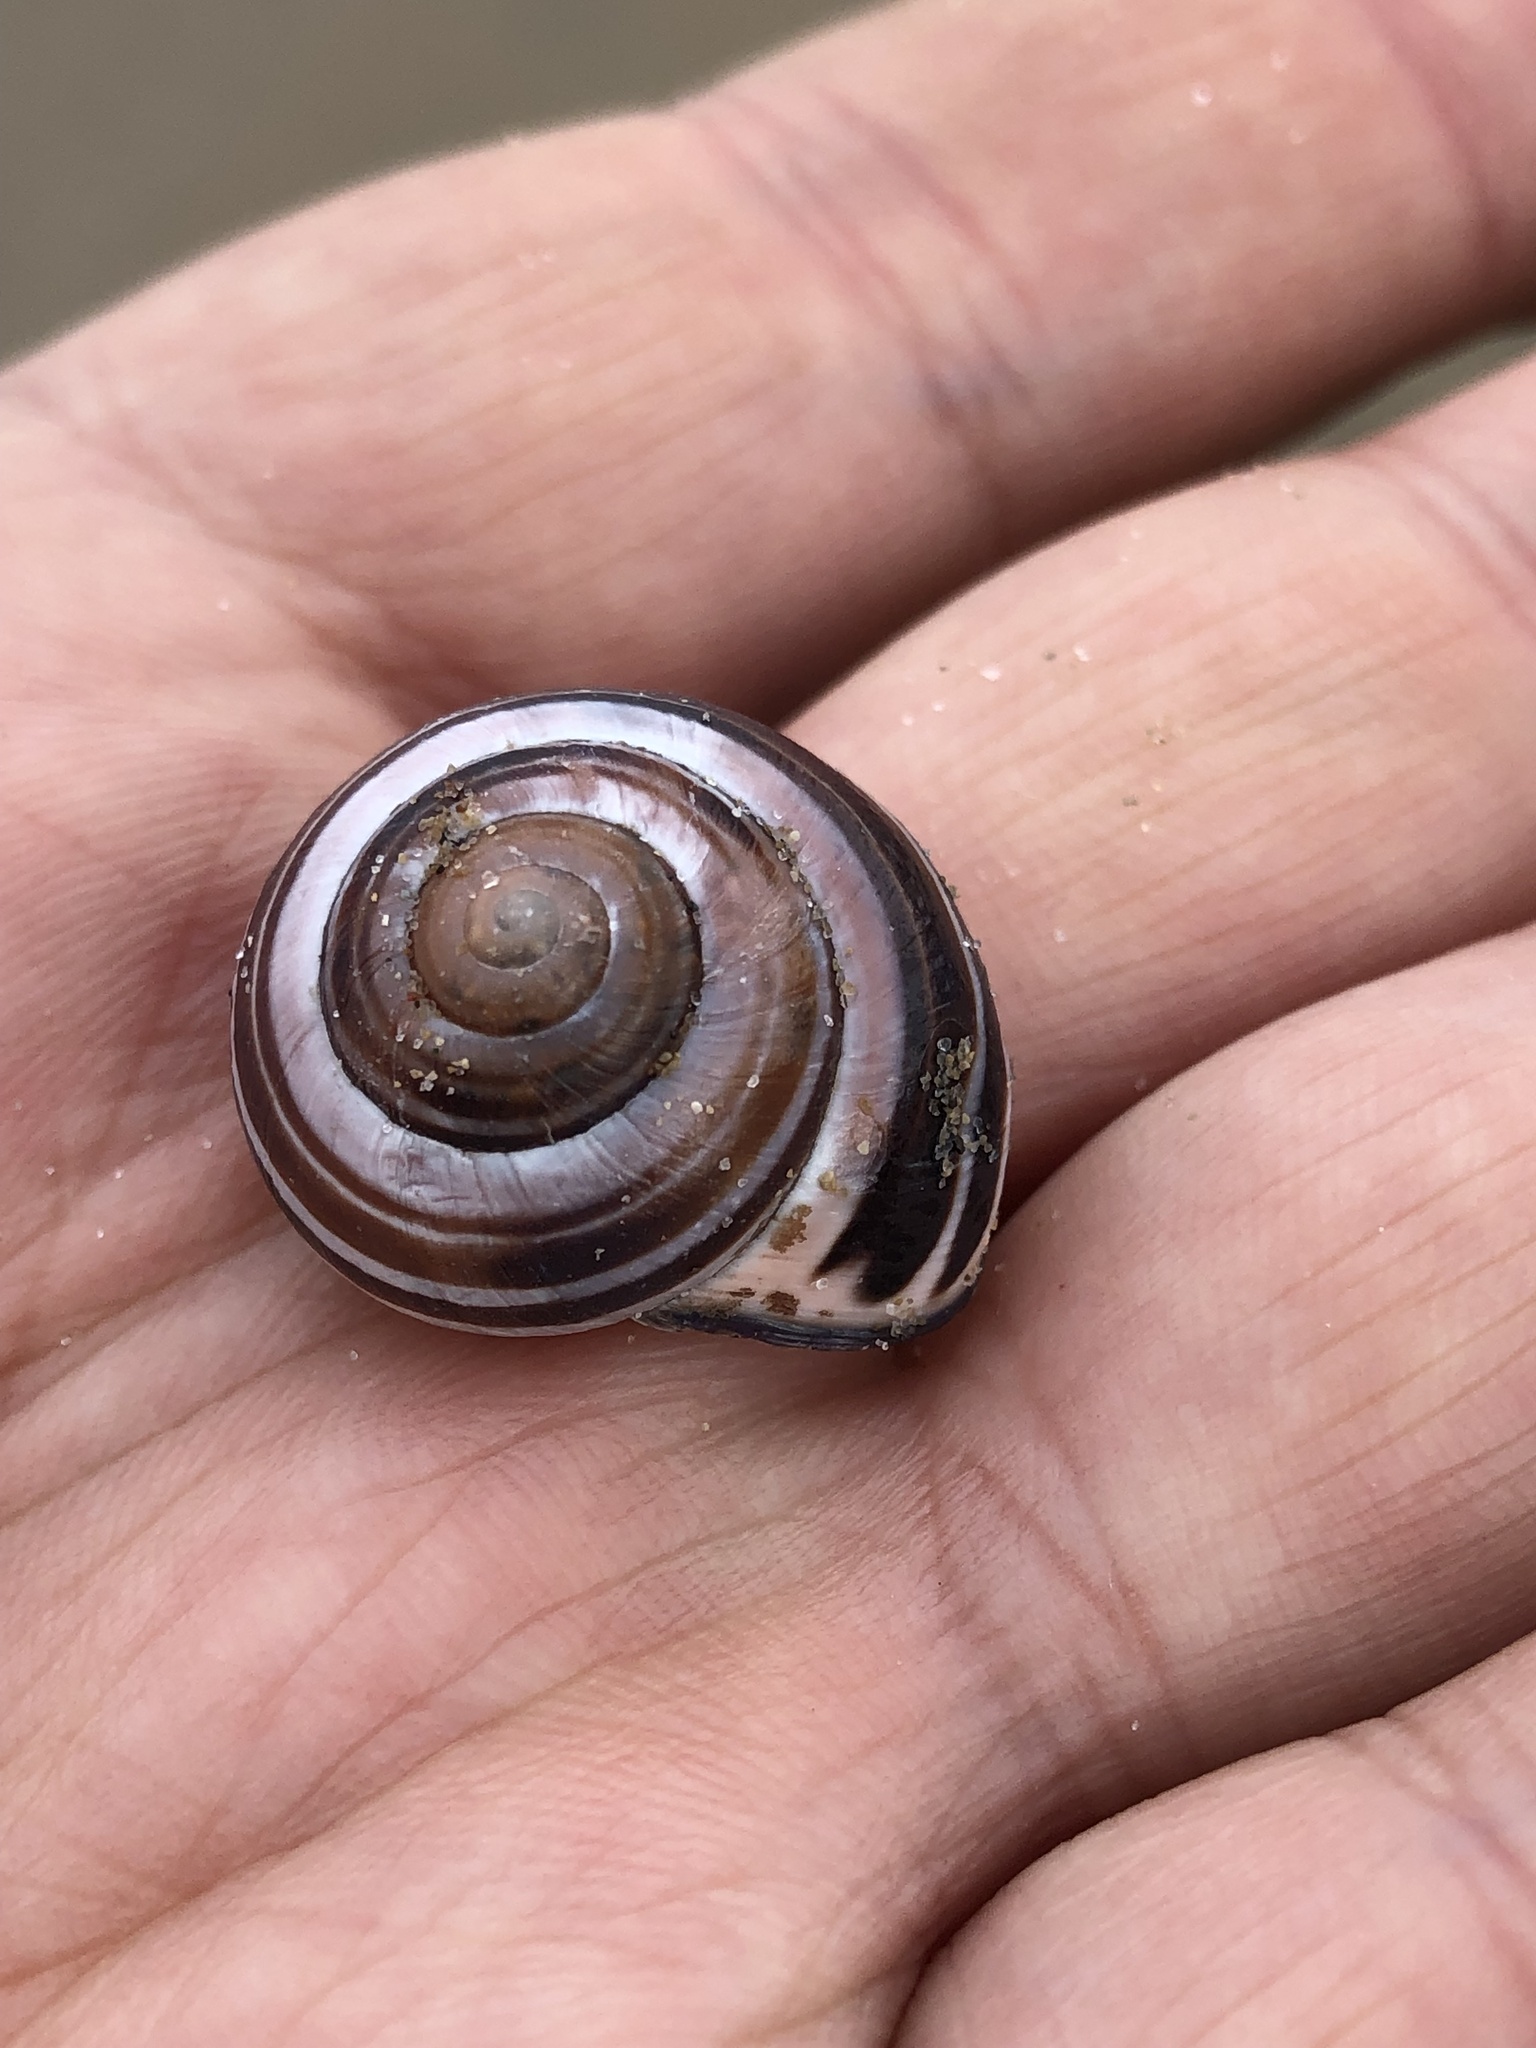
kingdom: Animalia
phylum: Mollusca
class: Gastropoda
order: Stylommatophora
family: Helicidae
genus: Cepaea
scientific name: Cepaea nemoralis
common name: Grovesnail
